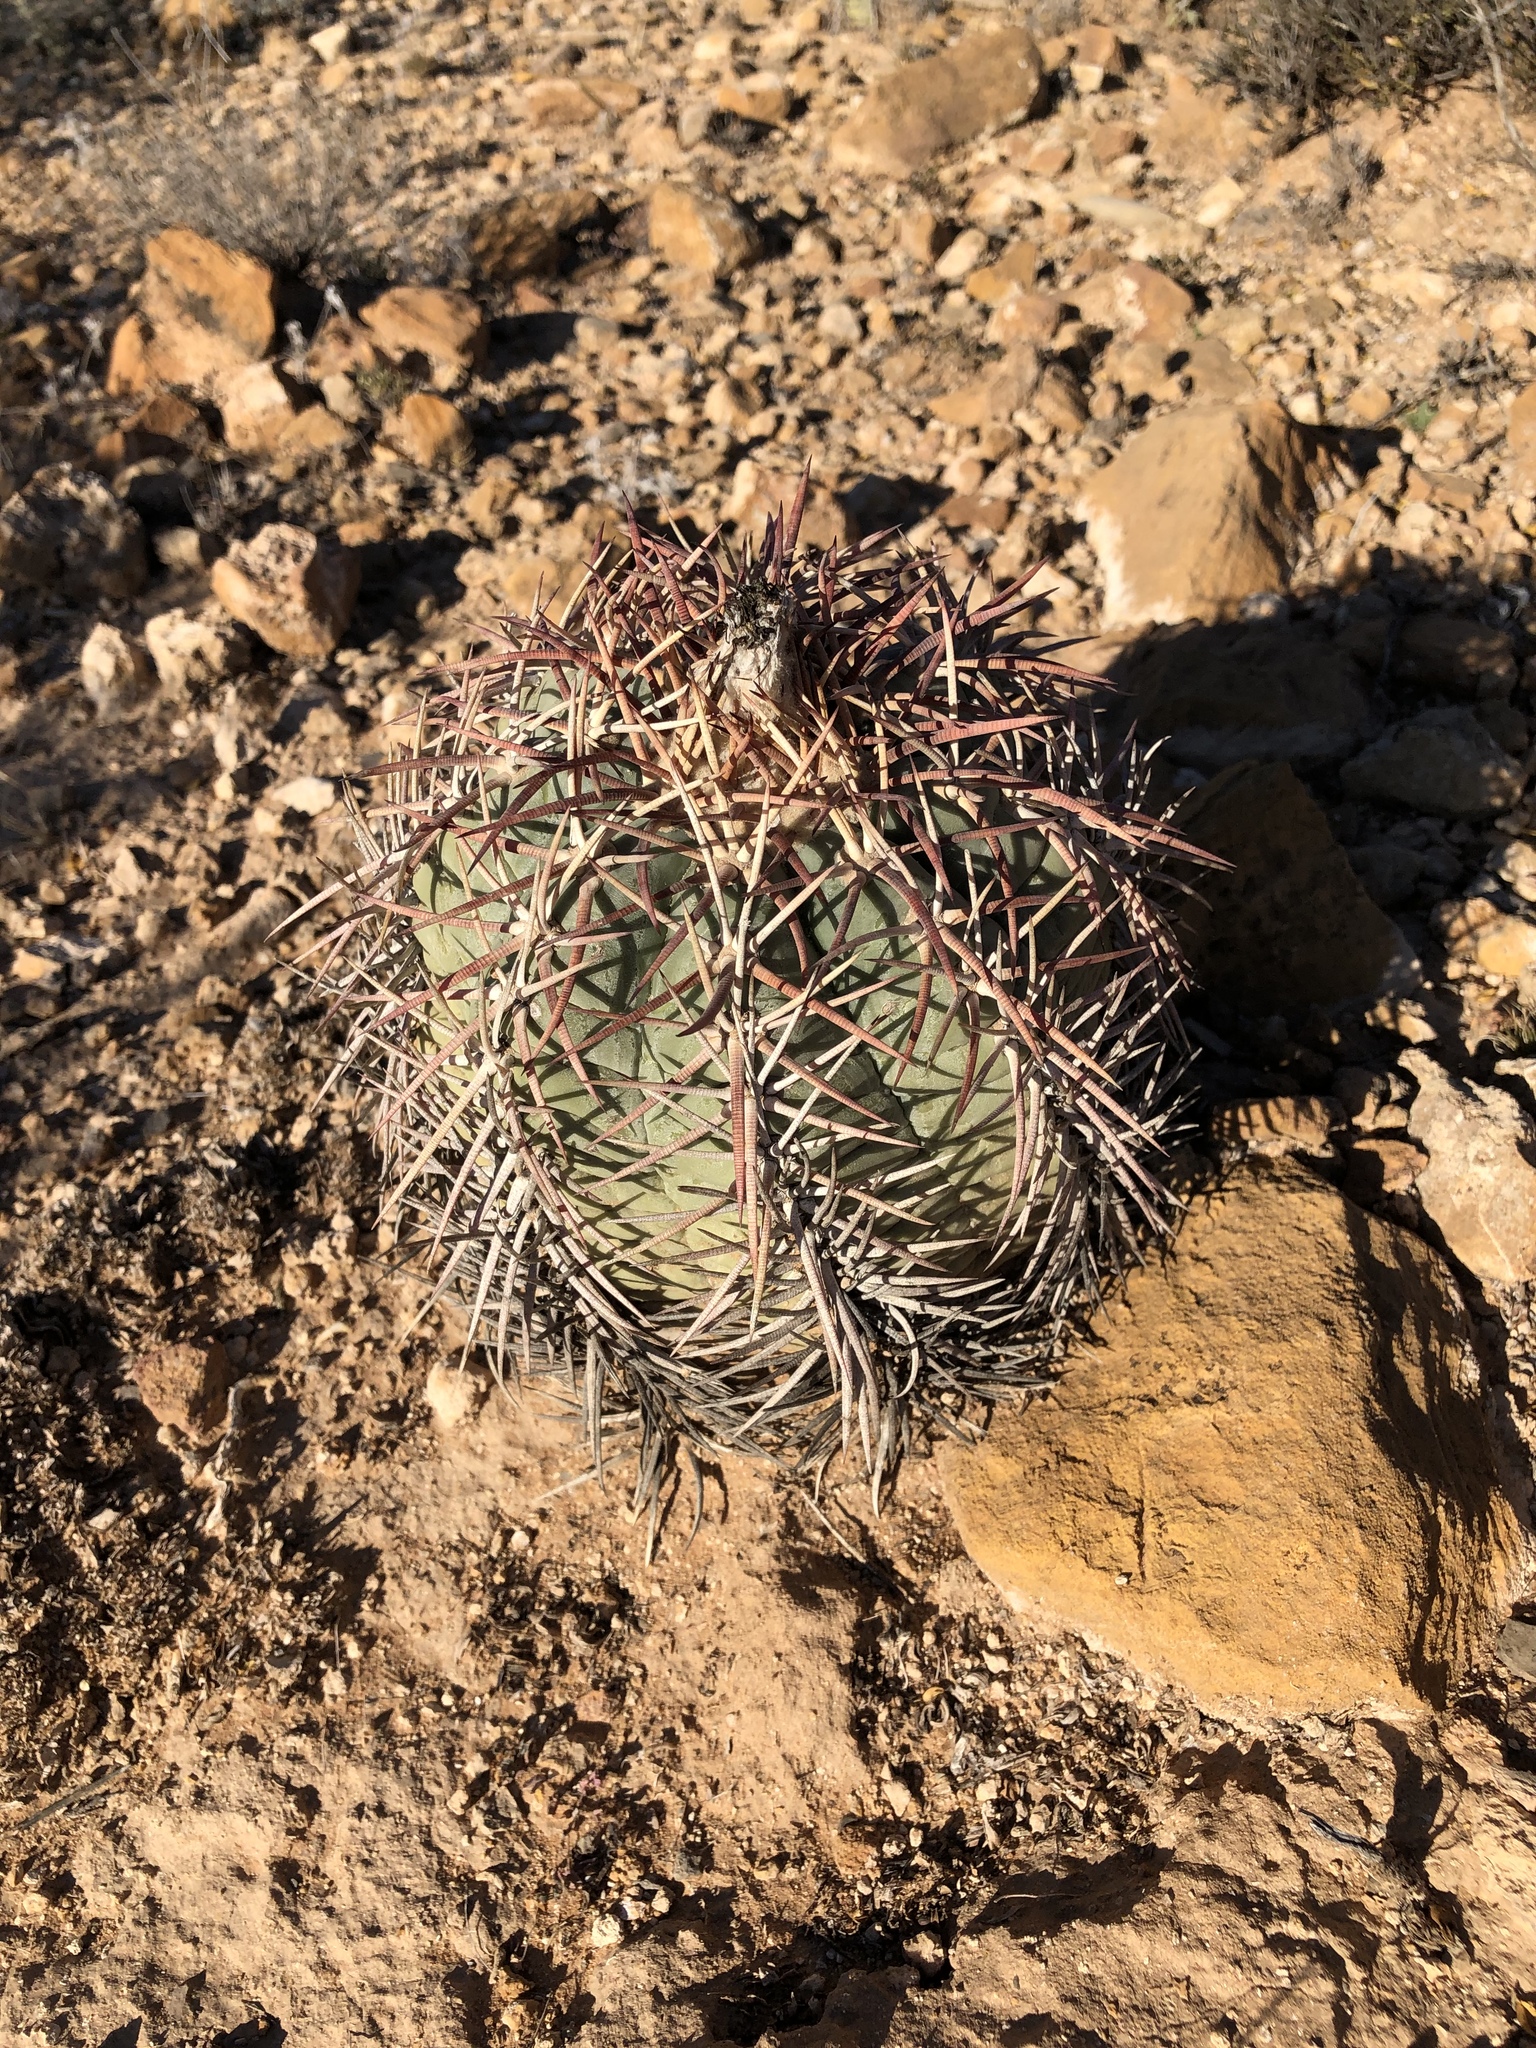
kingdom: Plantae
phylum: Tracheophyta
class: Magnoliopsida
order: Caryophyllales
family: Cactaceae
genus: Echinocactus
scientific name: Echinocactus horizonthalonius
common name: Devilshead
